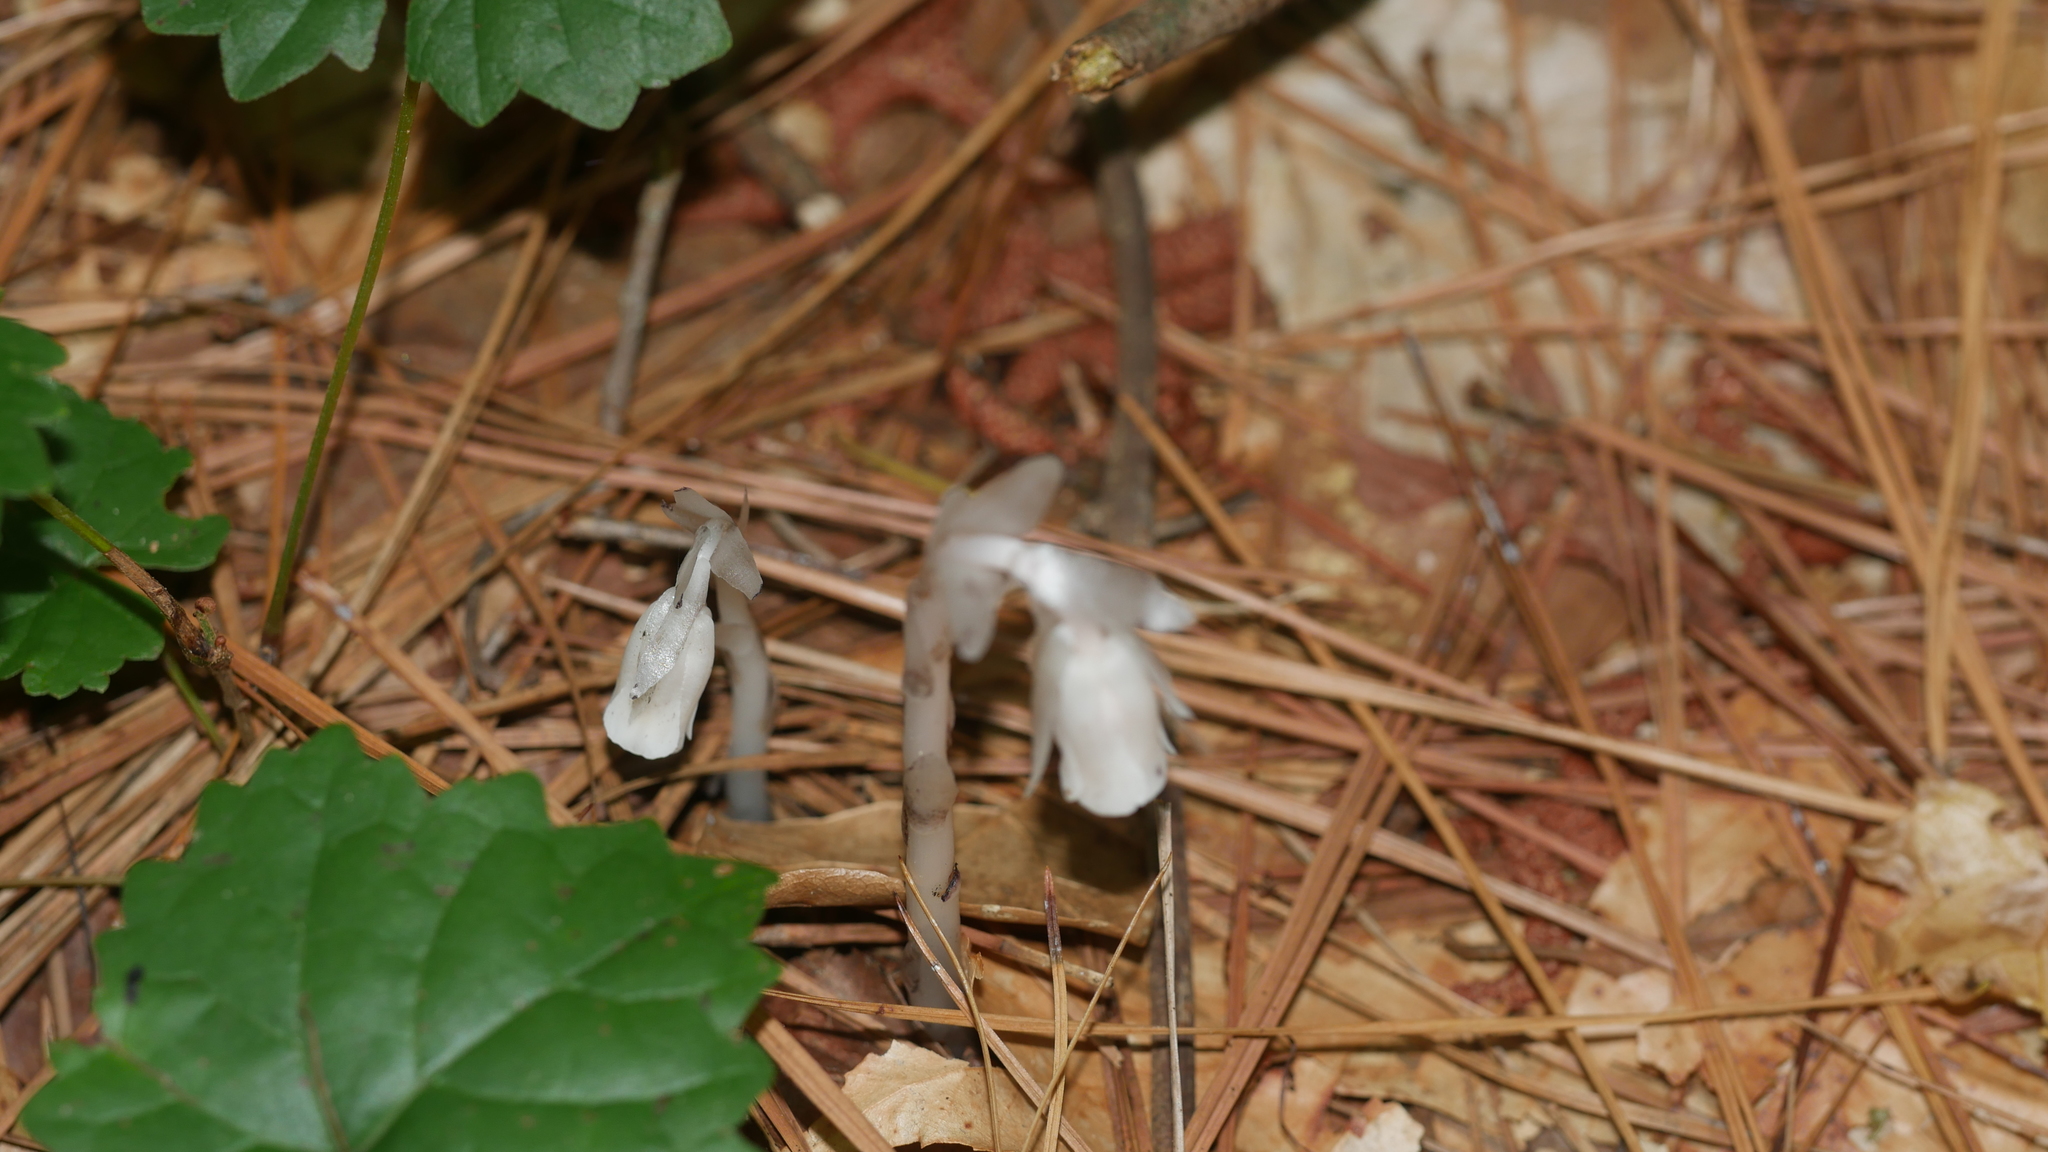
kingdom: Plantae
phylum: Tracheophyta
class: Magnoliopsida
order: Ericales
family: Ericaceae
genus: Monotropa
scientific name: Monotropa uniflora
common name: Convulsion root
